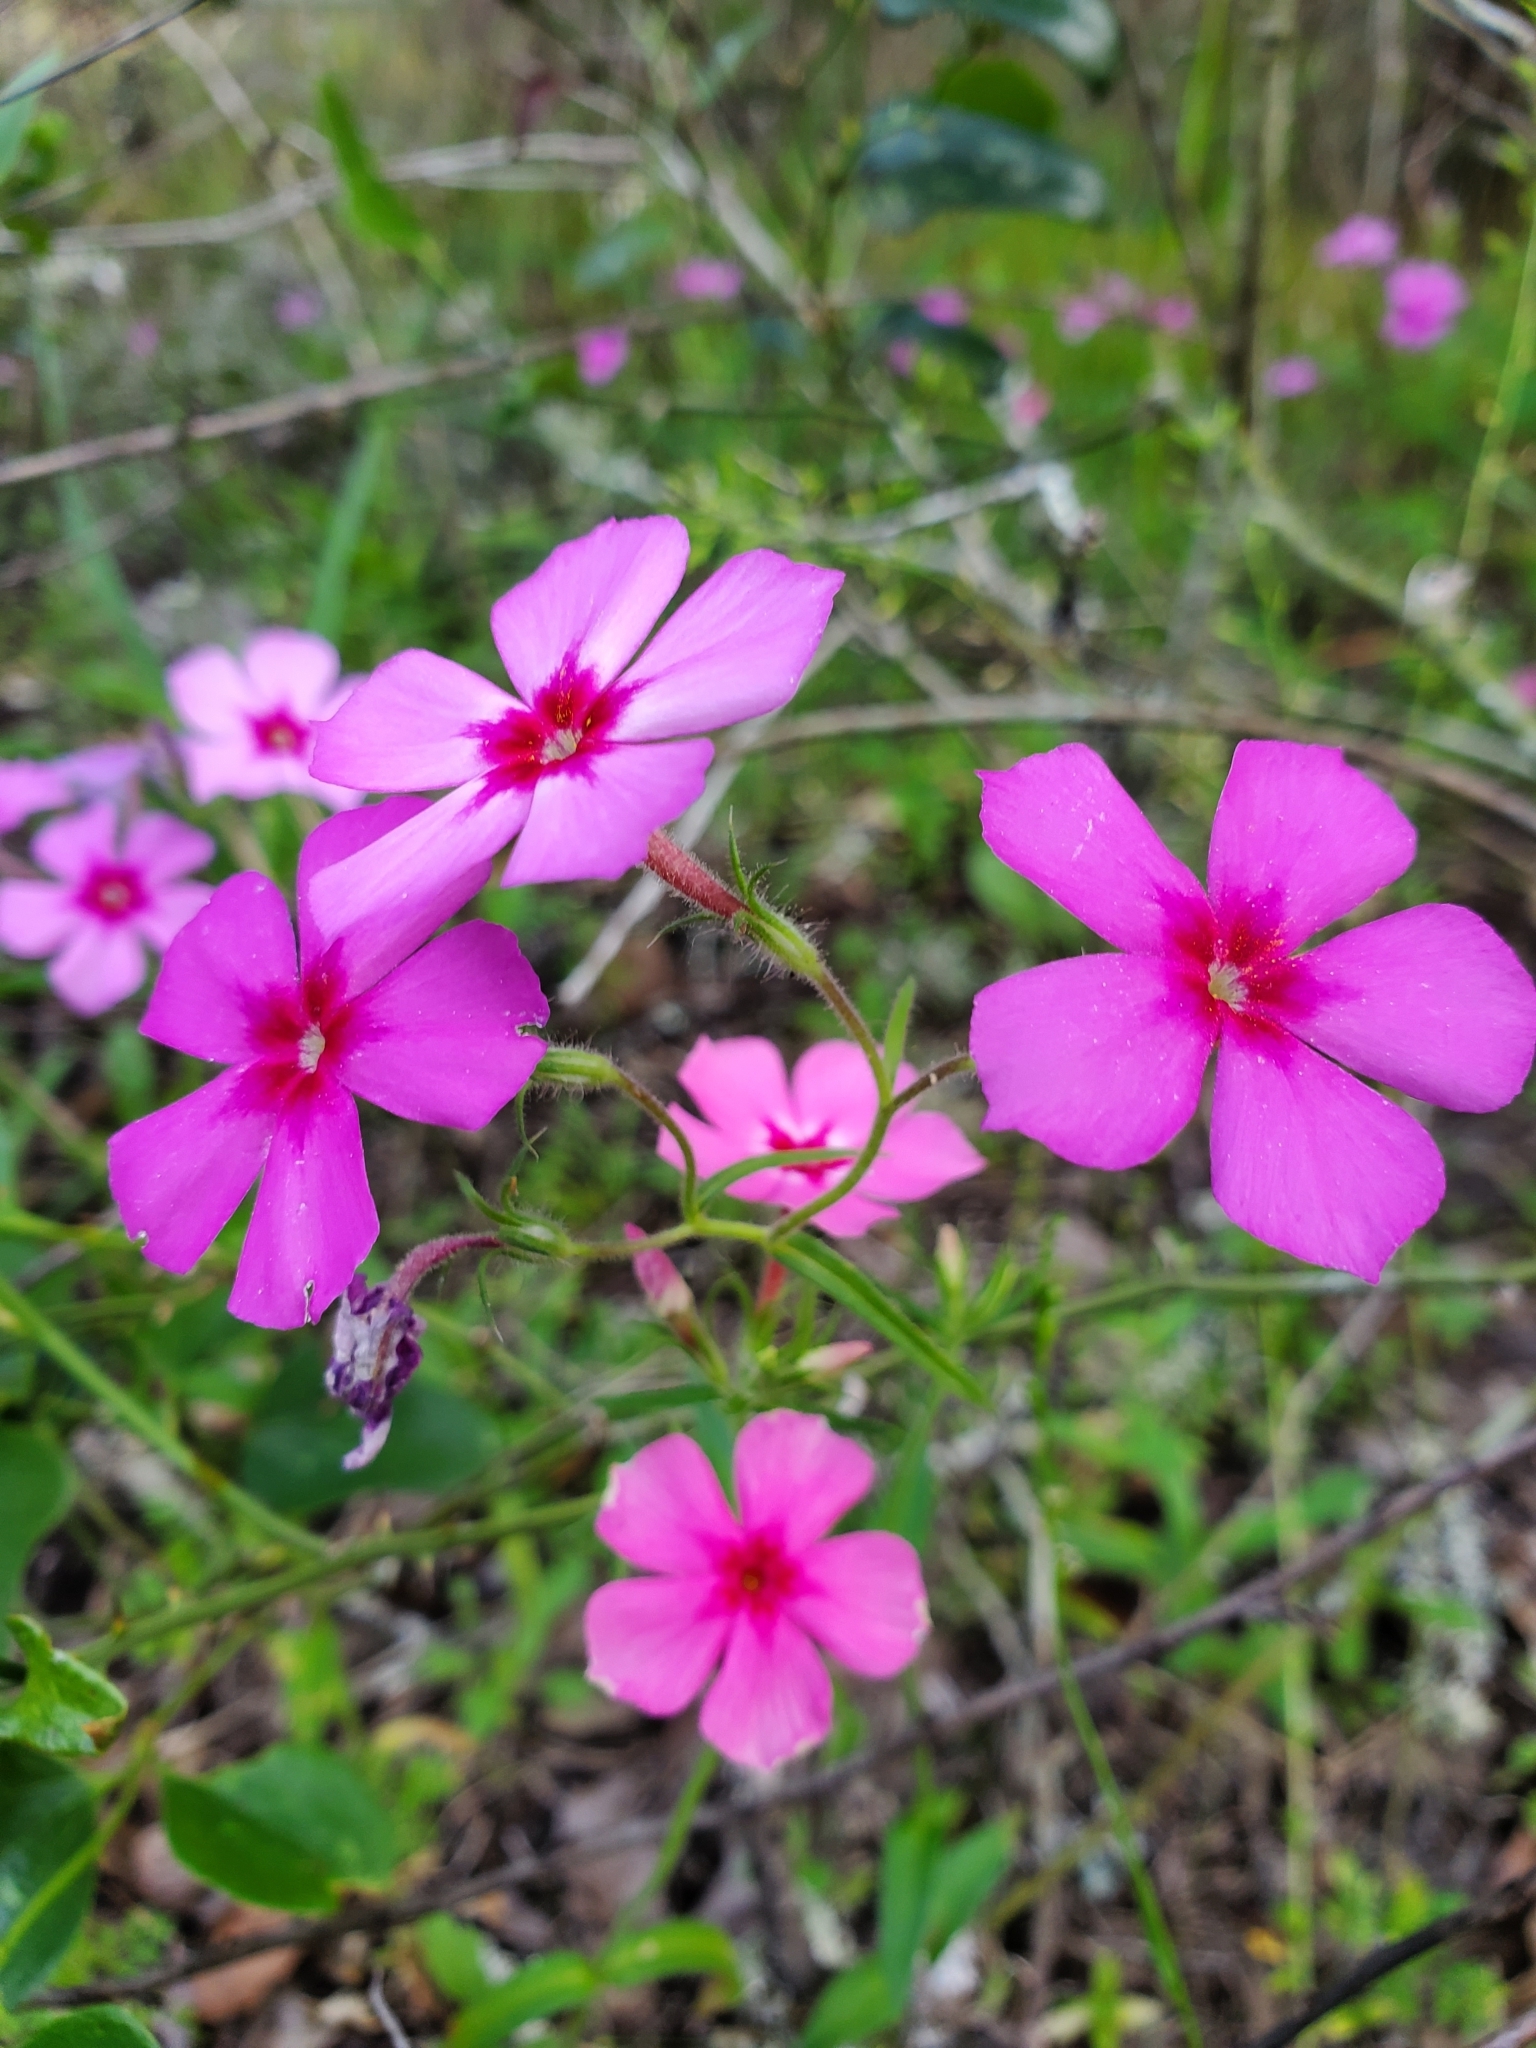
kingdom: Plantae
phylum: Tracheophyta
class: Magnoliopsida
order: Ericales
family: Polemoniaceae
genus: Phlox
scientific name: Phlox drummondii
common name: Drummond's phlox
